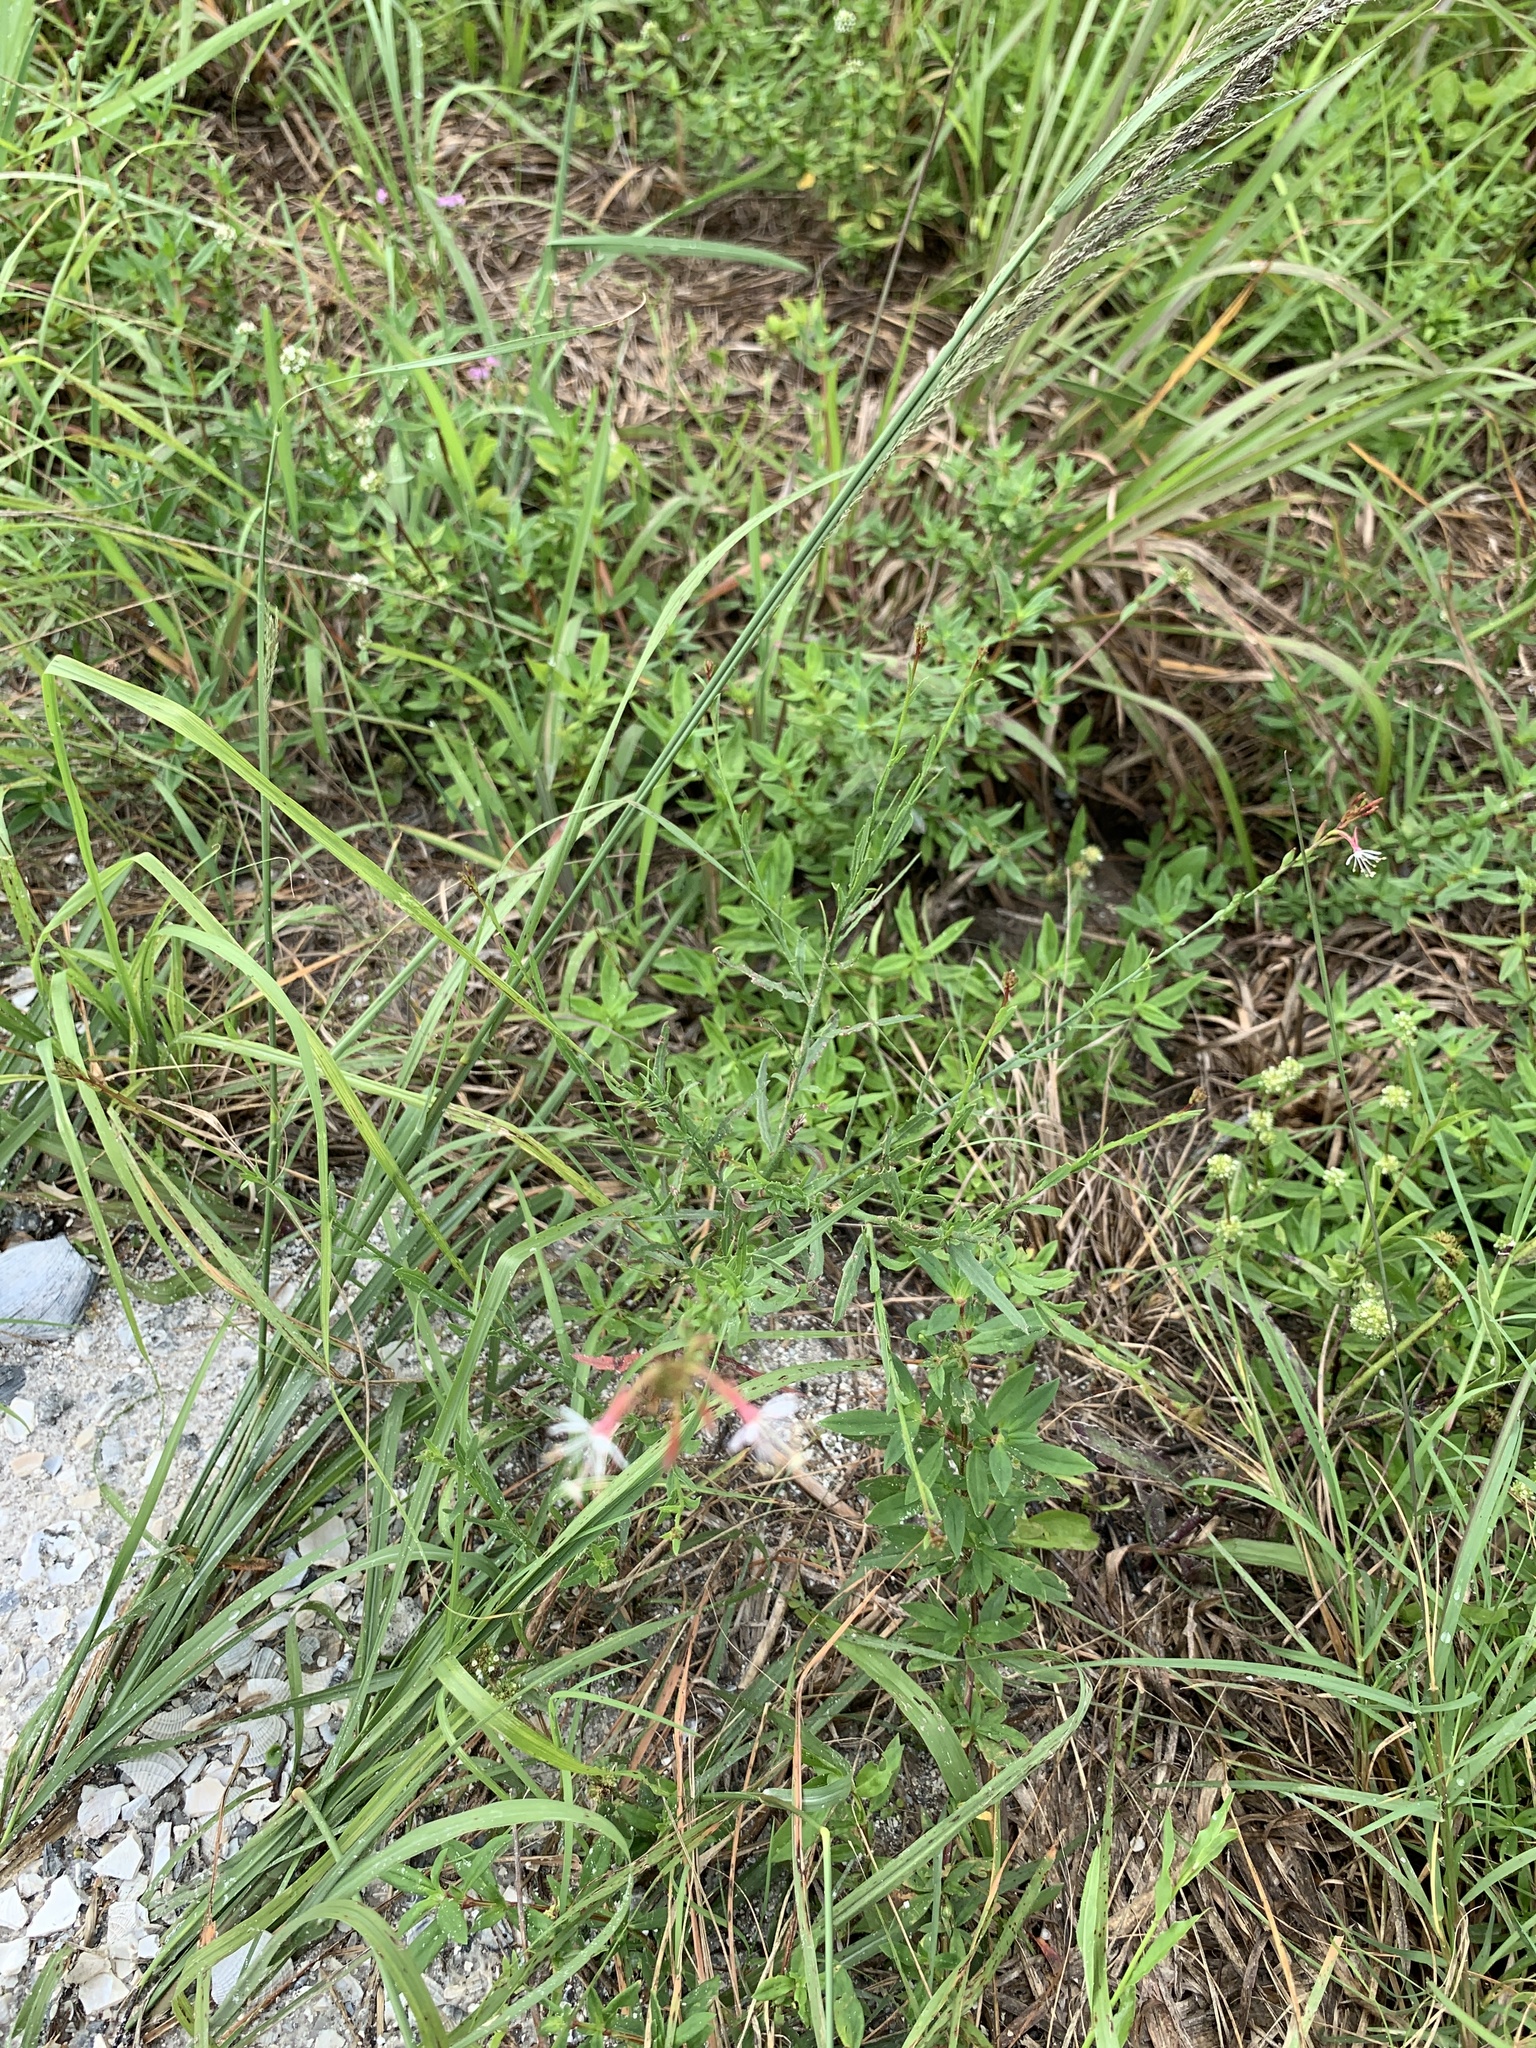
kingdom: Plantae
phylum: Tracheophyta
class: Magnoliopsida
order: Myrtales
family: Onagraceae
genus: Oenothera
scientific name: Oenothera simulans
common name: Southern beeblossom
